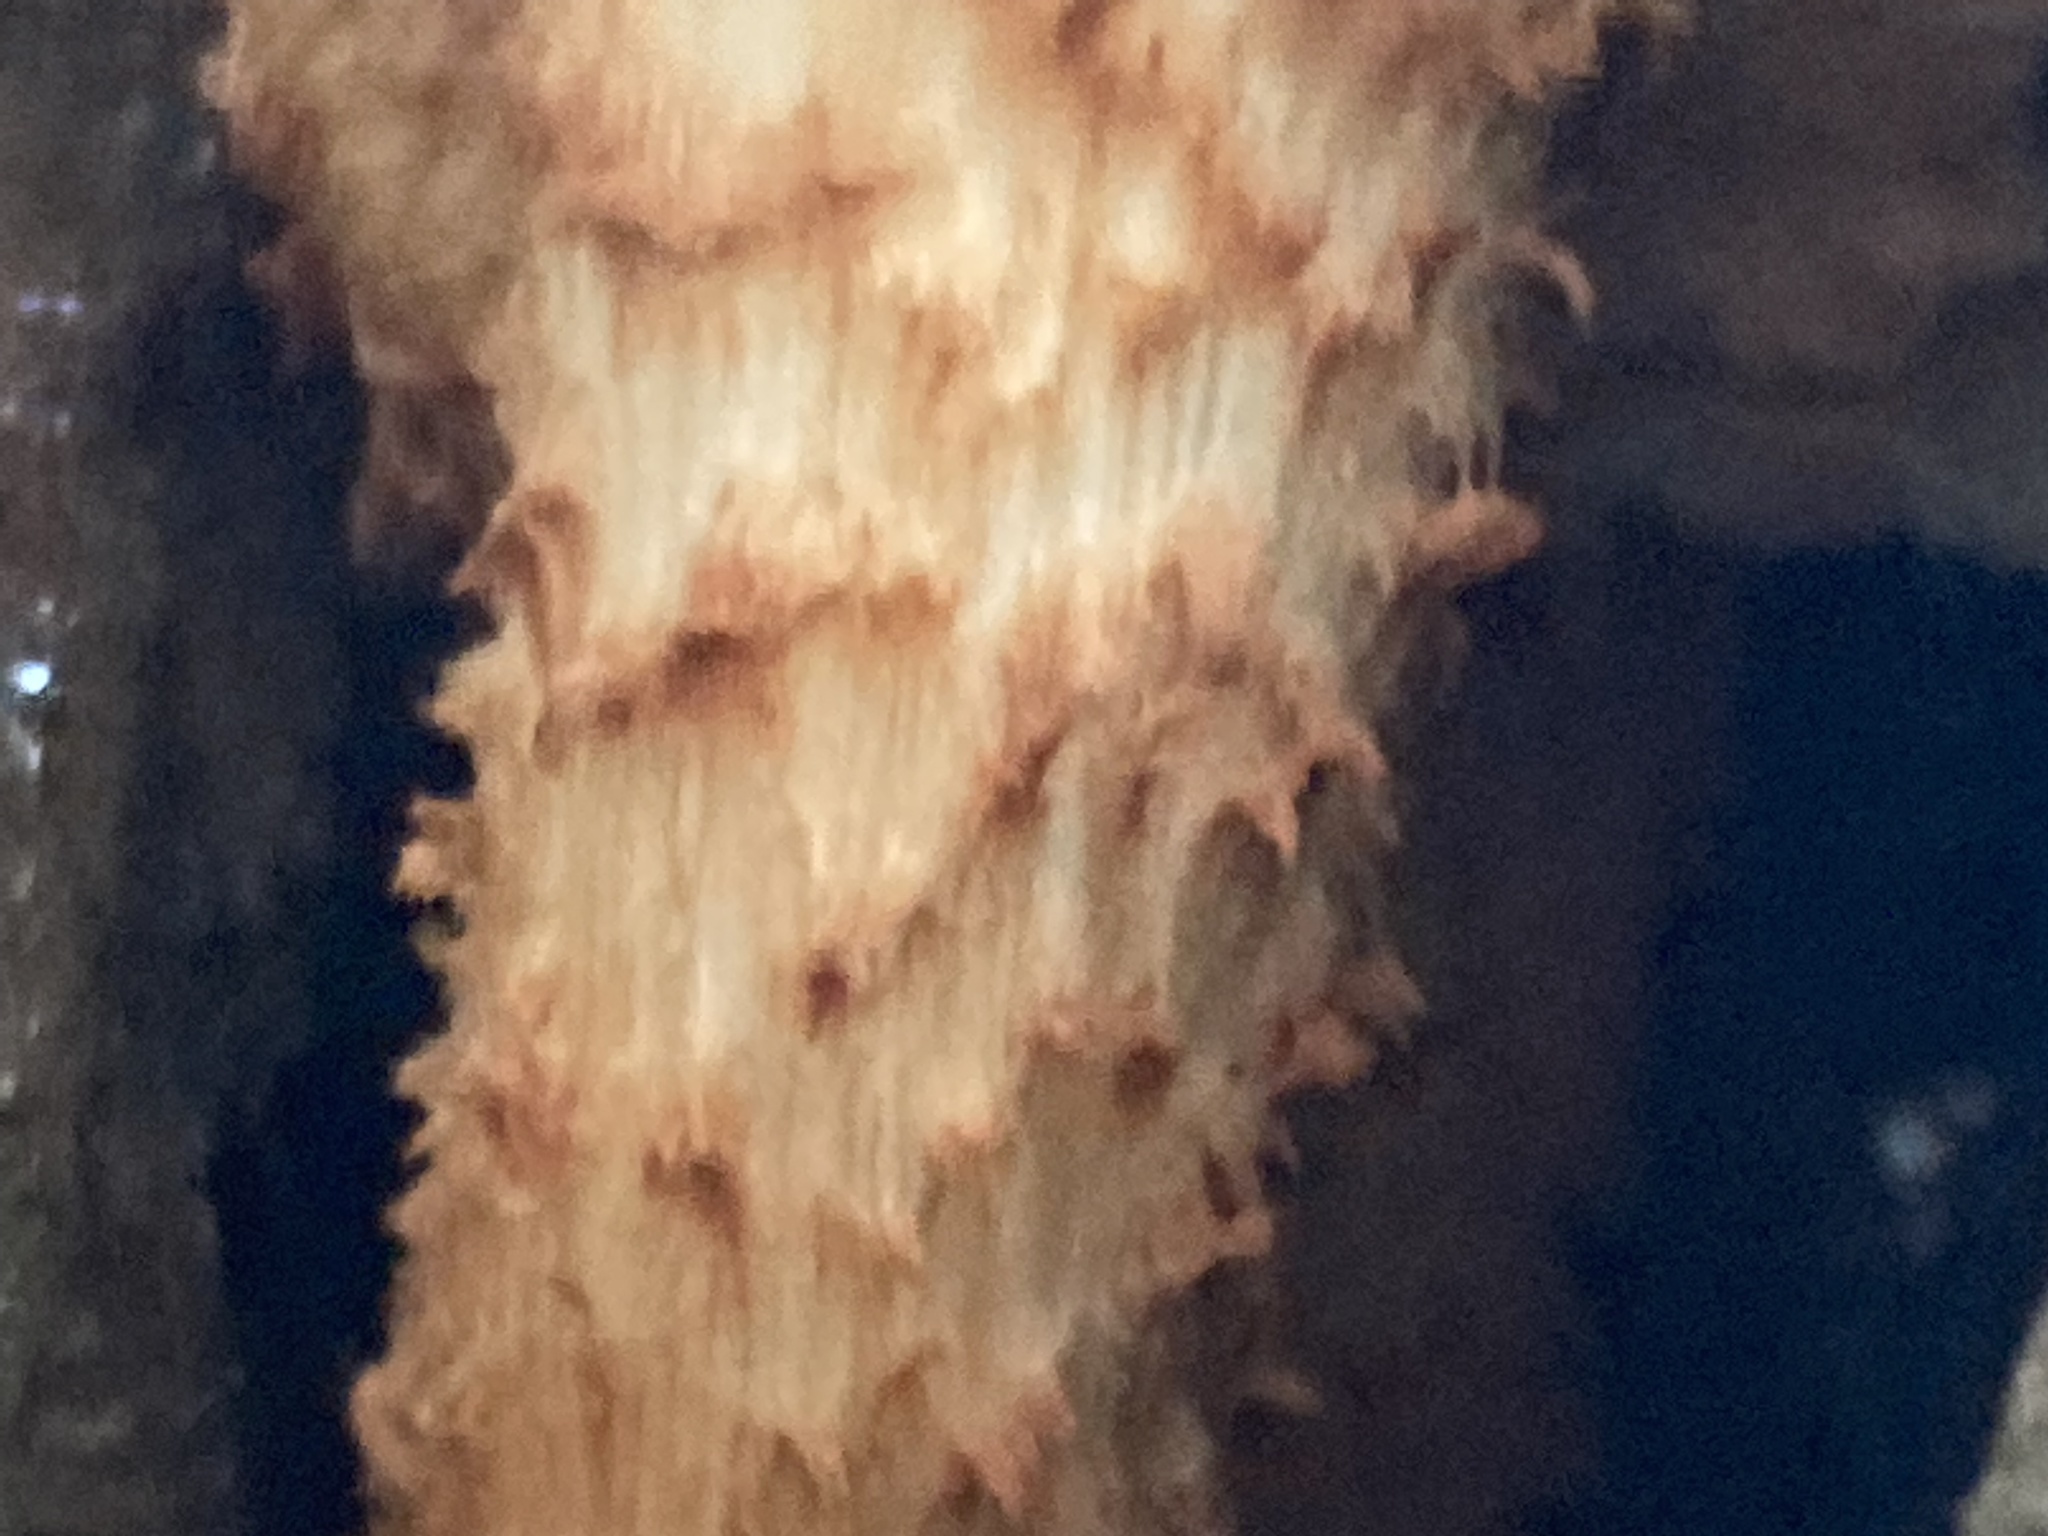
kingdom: Fungi
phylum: Basidiomycota
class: Agaricomycetes
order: Agaricales
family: Strophariaceae
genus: Pholiota
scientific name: Pholiota squarrosa
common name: Shaggy pholiota
